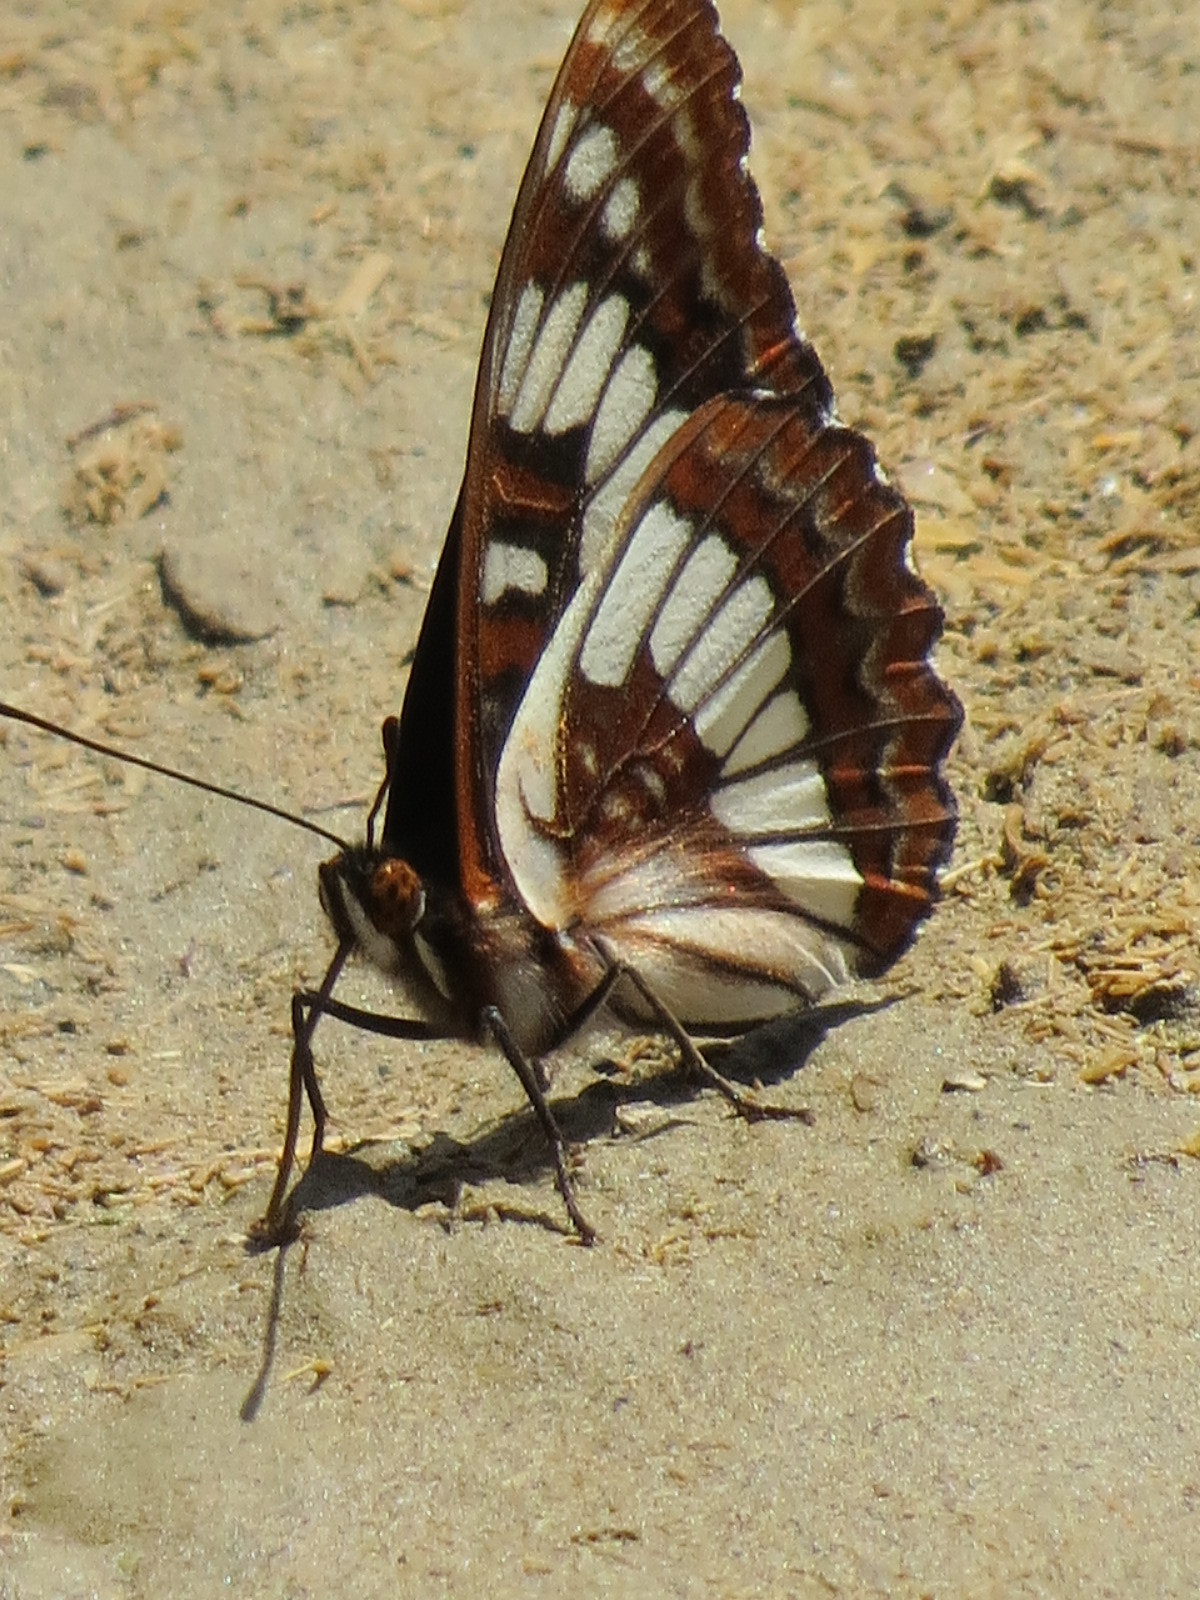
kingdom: Animalia
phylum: Arthropoda
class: Insecta
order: Lepidoptera
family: Nymphalidae
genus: Limenitis
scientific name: Limenitis lorquini
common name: Lorquin's admiral
